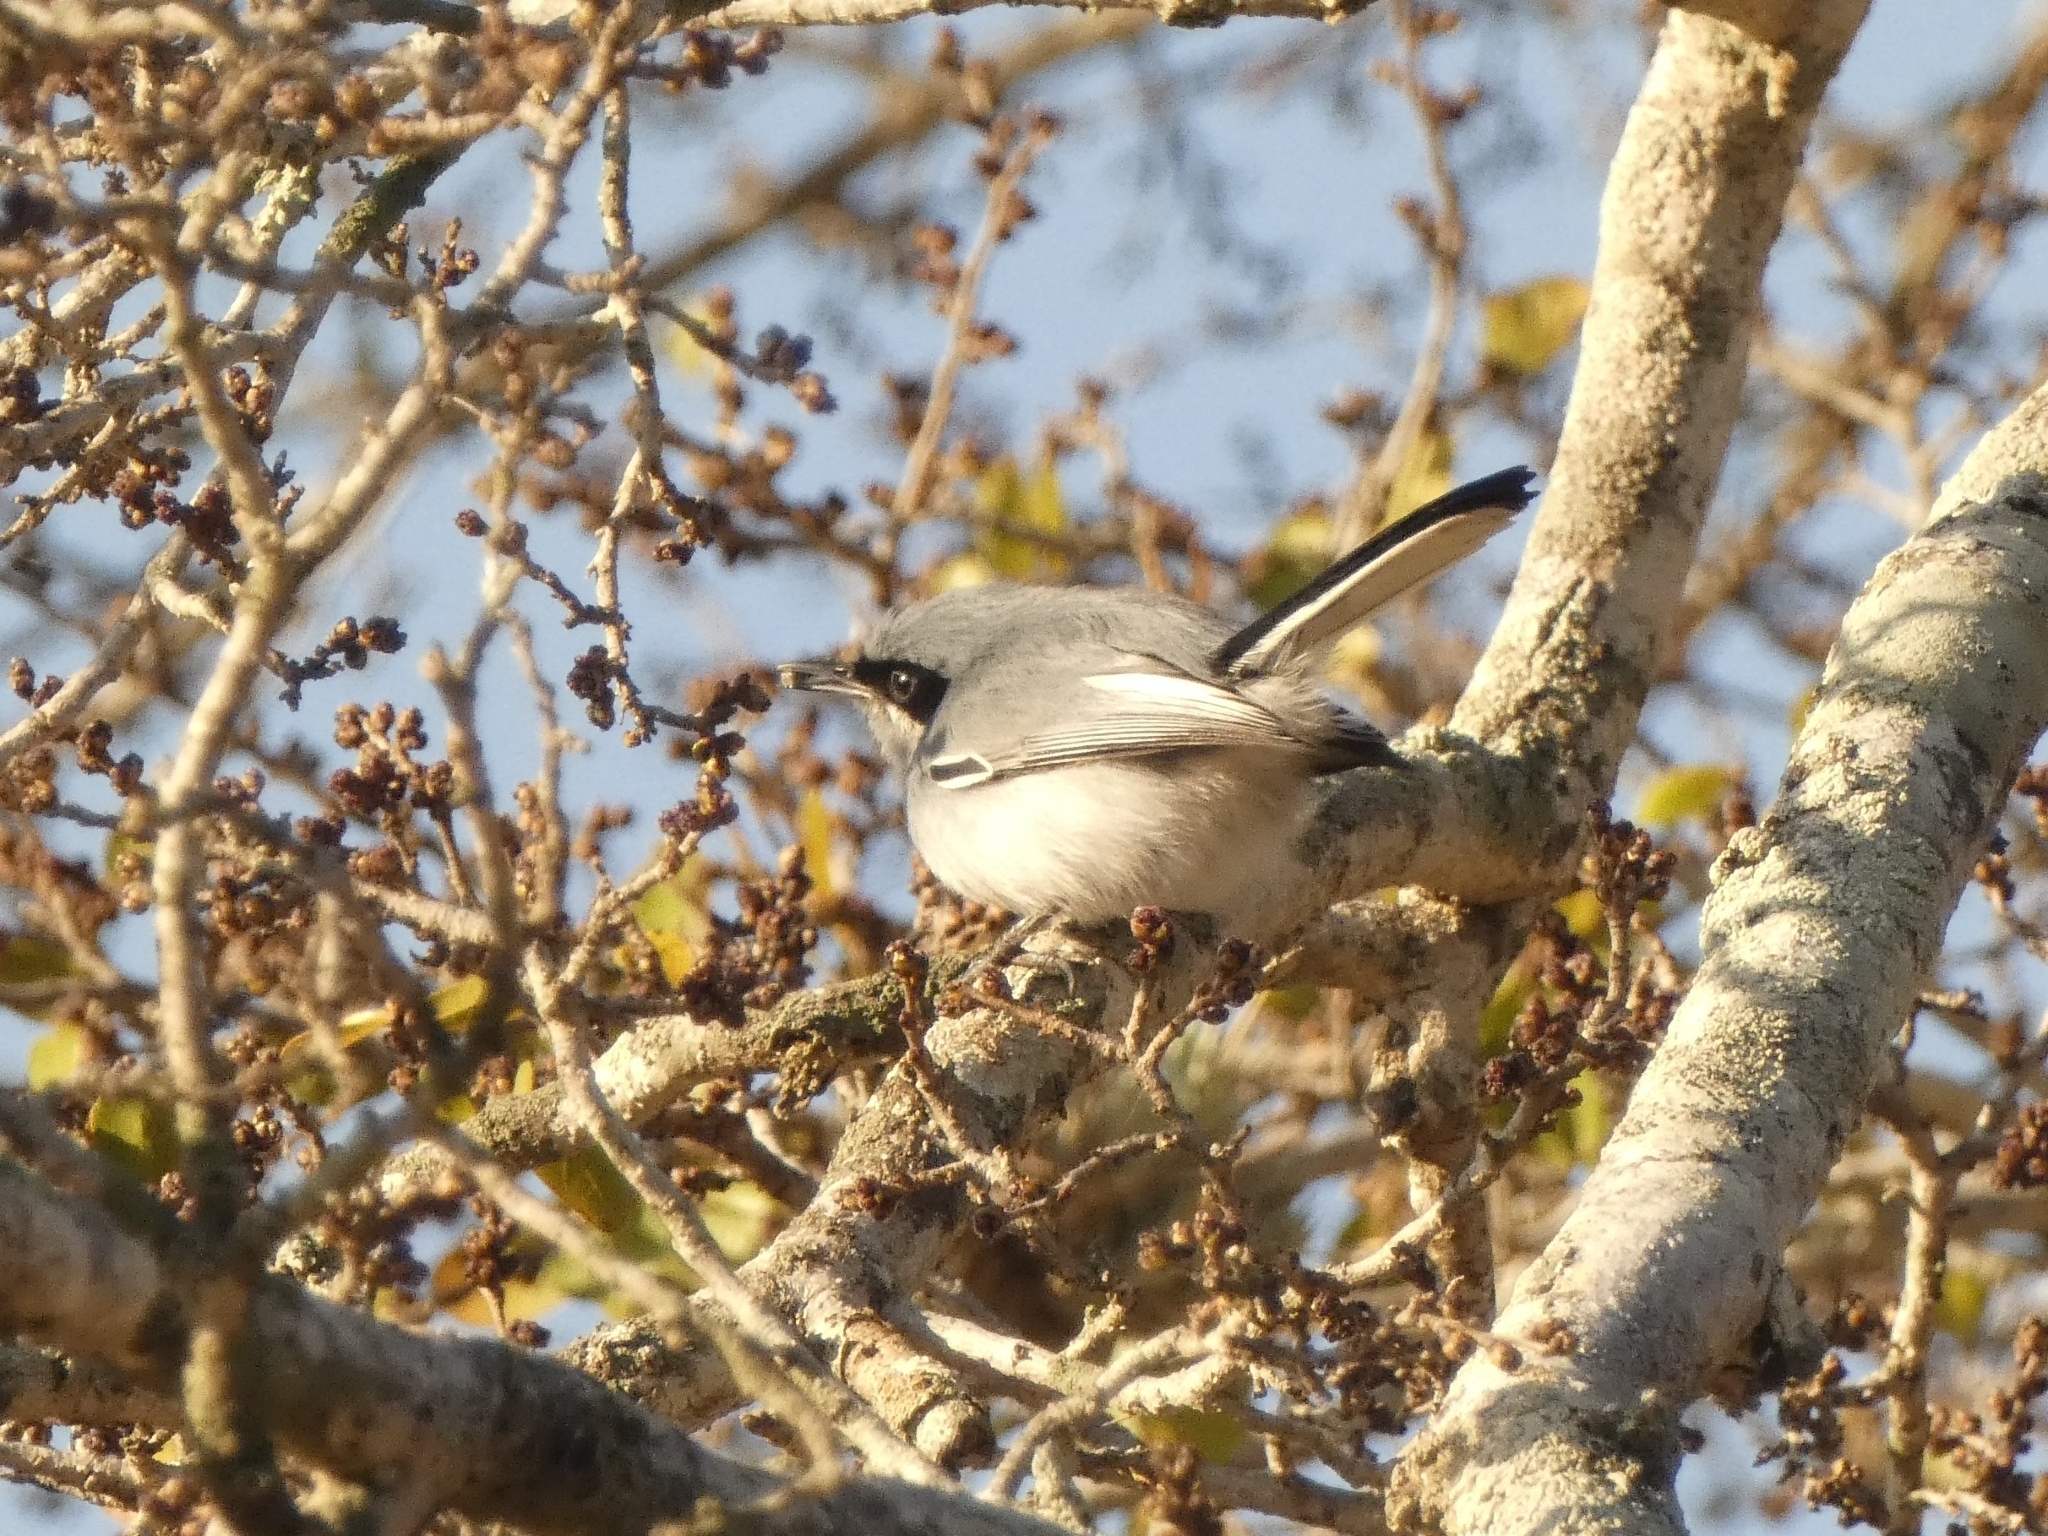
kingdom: Animalia
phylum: Chordata
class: Aves
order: Passeriformes
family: Polioptilidae
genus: Polioptila
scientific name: Polioptila dumicola
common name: Masked gnatcatcher
